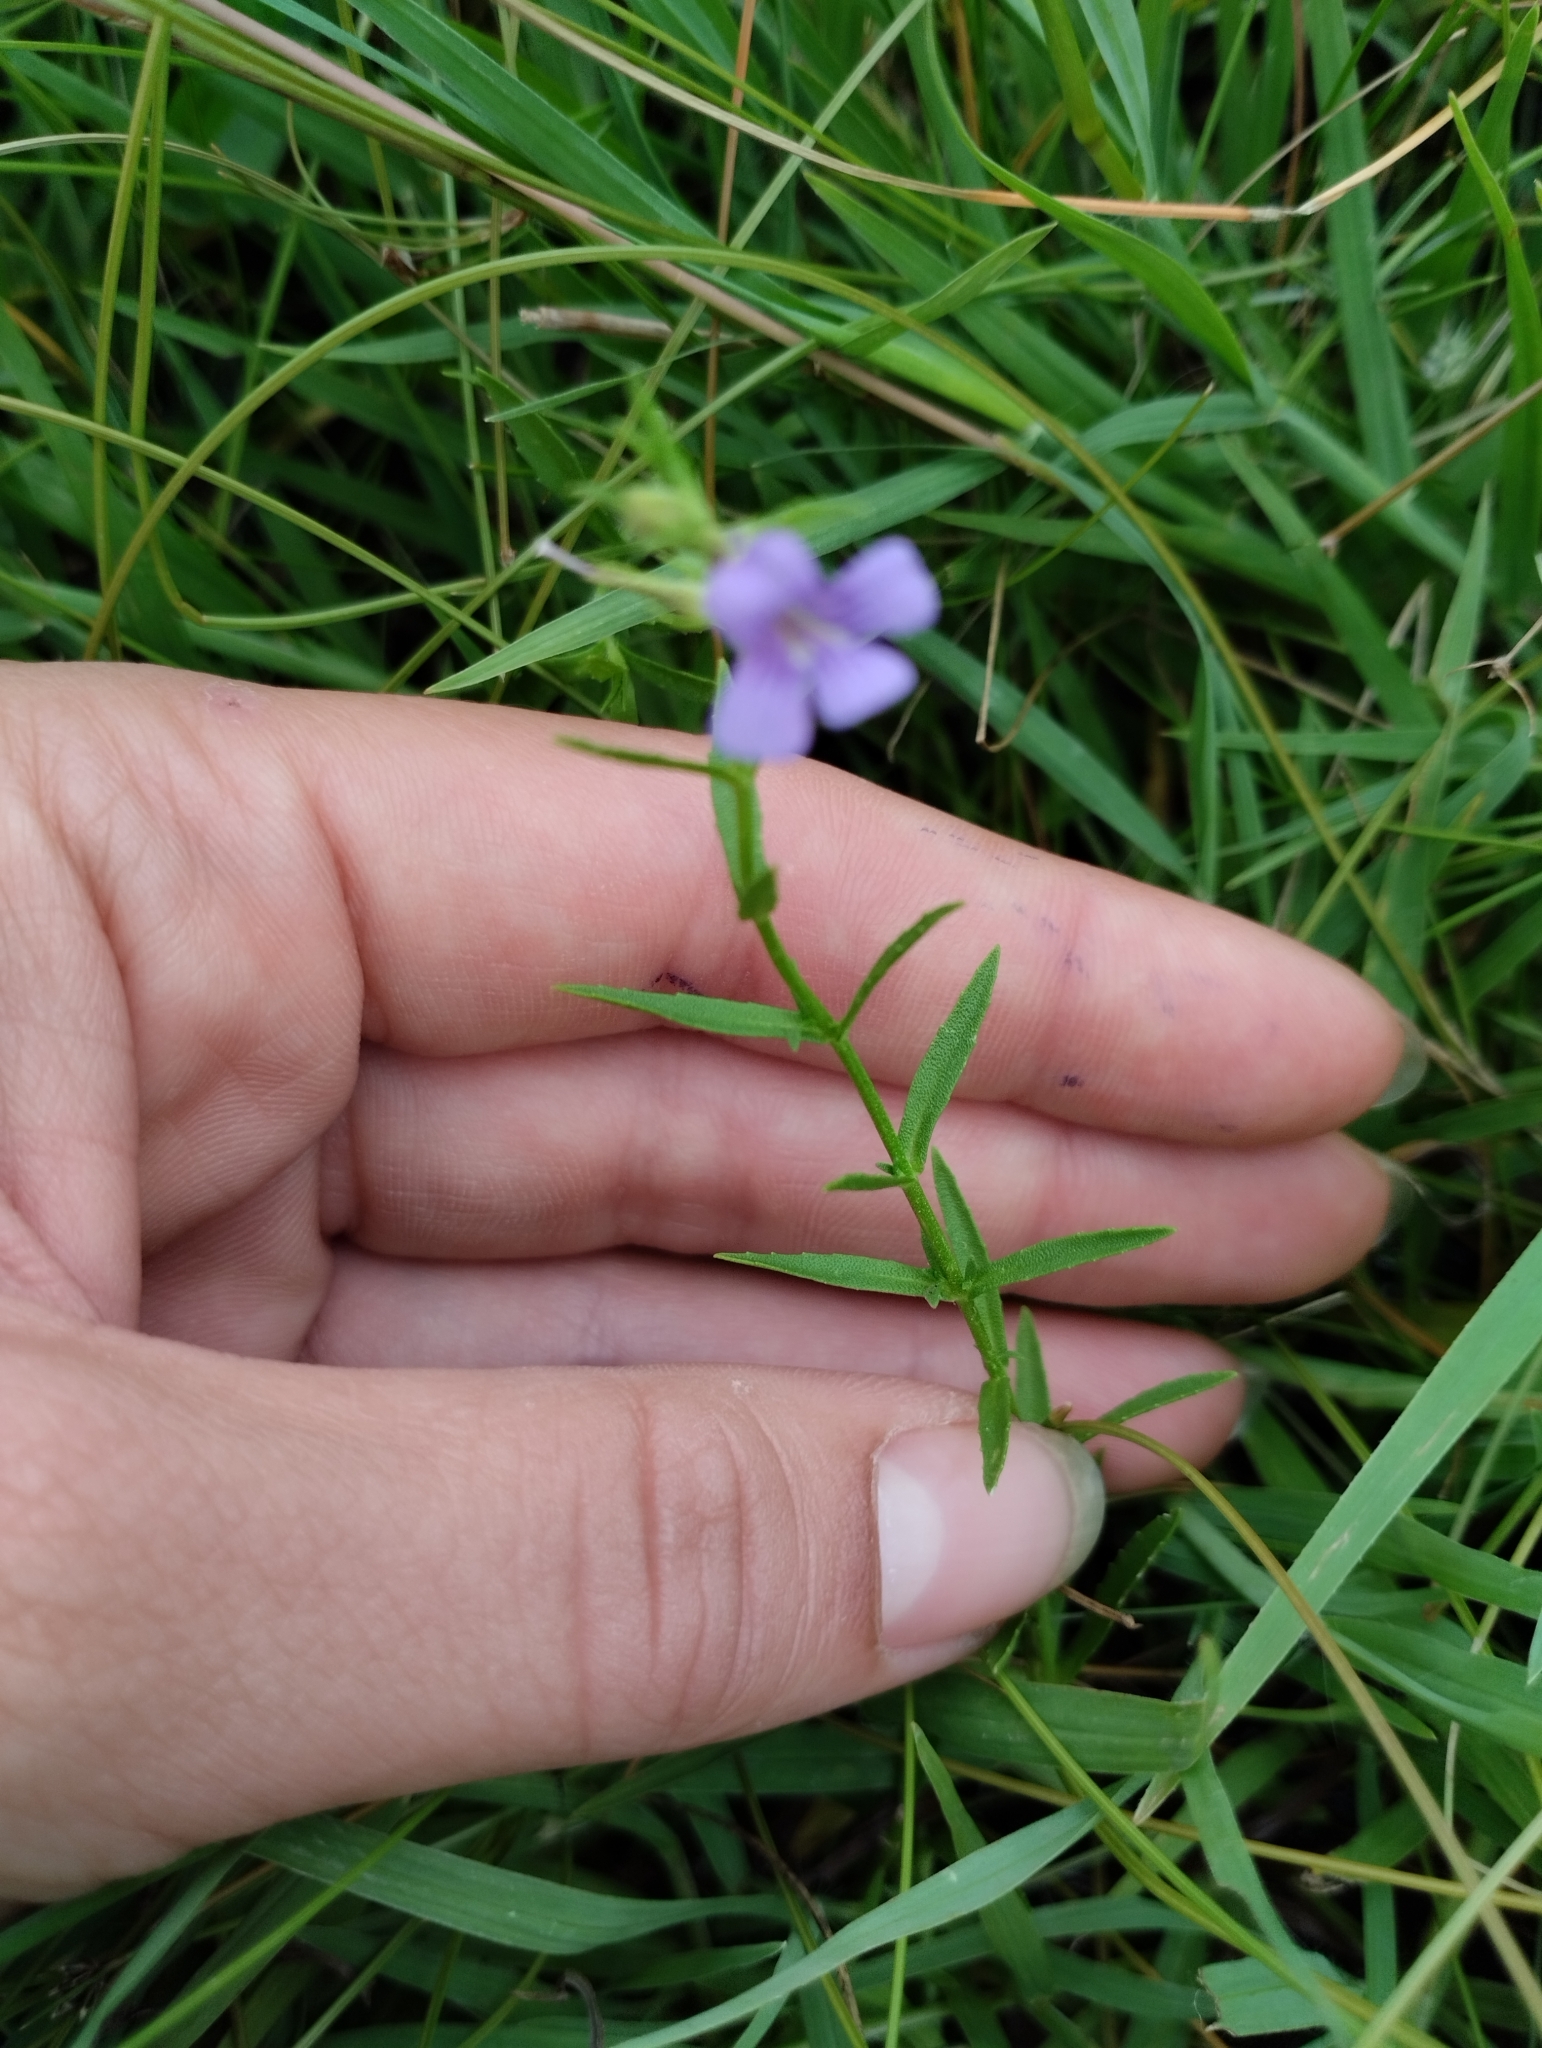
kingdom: Plantae
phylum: Tracheophyta
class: Magnoliopsida
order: Lamiales
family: Plantaginaceae
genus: Stemodia
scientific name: Stemodia palustris
